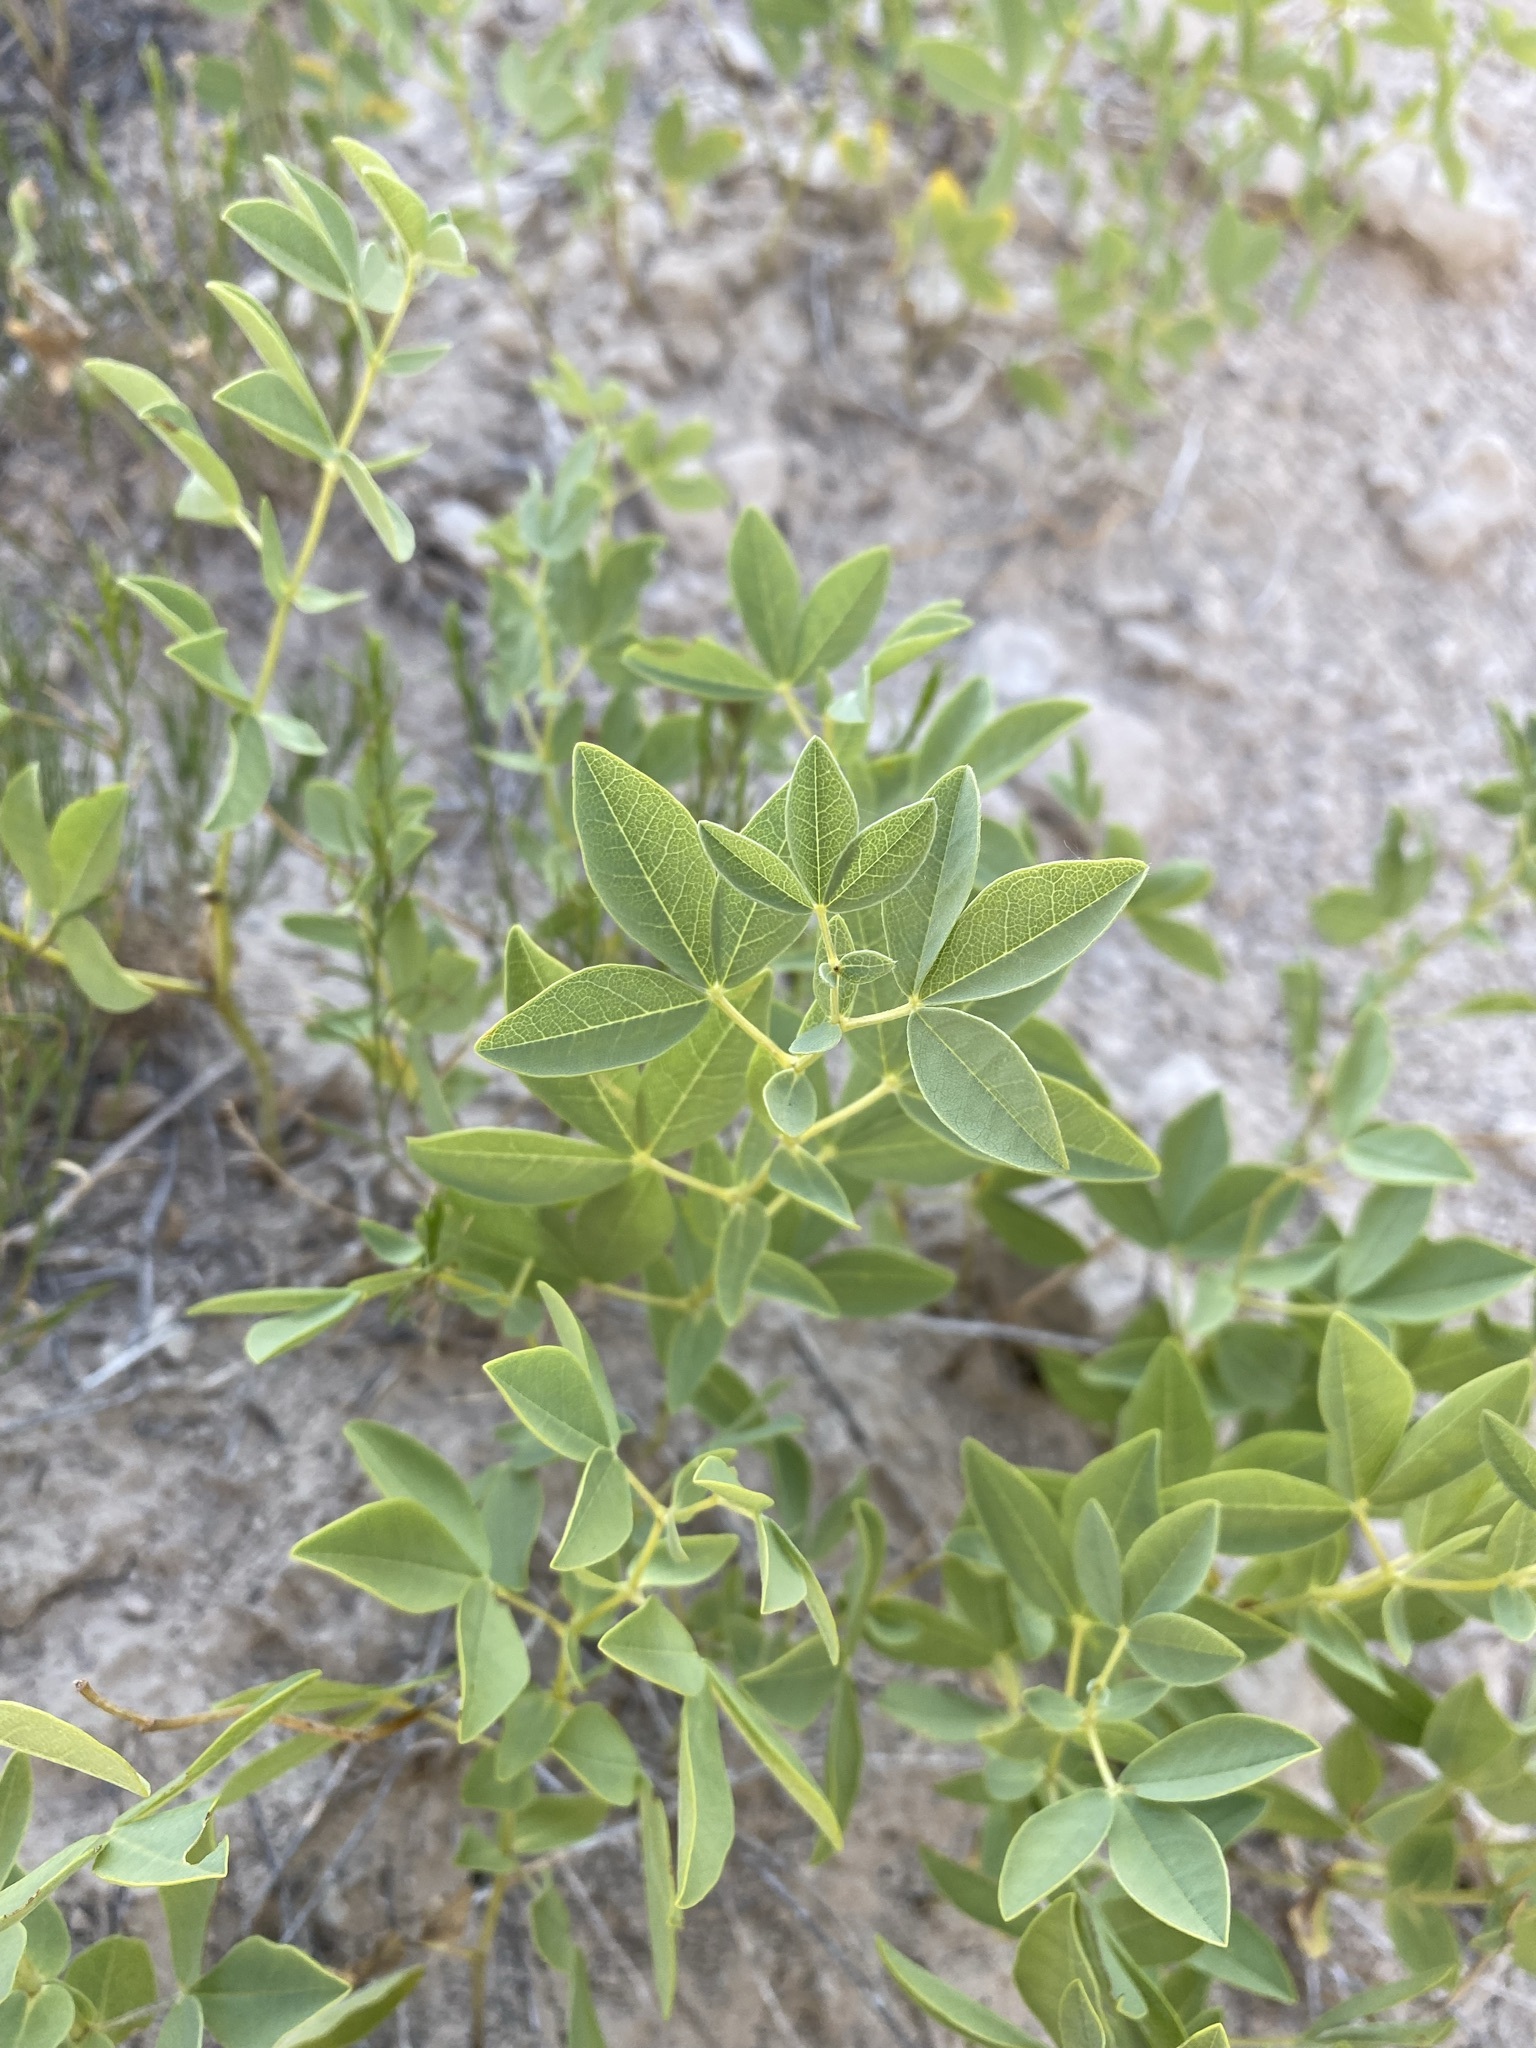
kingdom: Plantae
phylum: Tracheophyta
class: Magnoliopsida
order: Fabales
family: Fabaceae
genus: Thermopsis
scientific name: Thermopsis rhombifolia
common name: Circle-pod-pea
